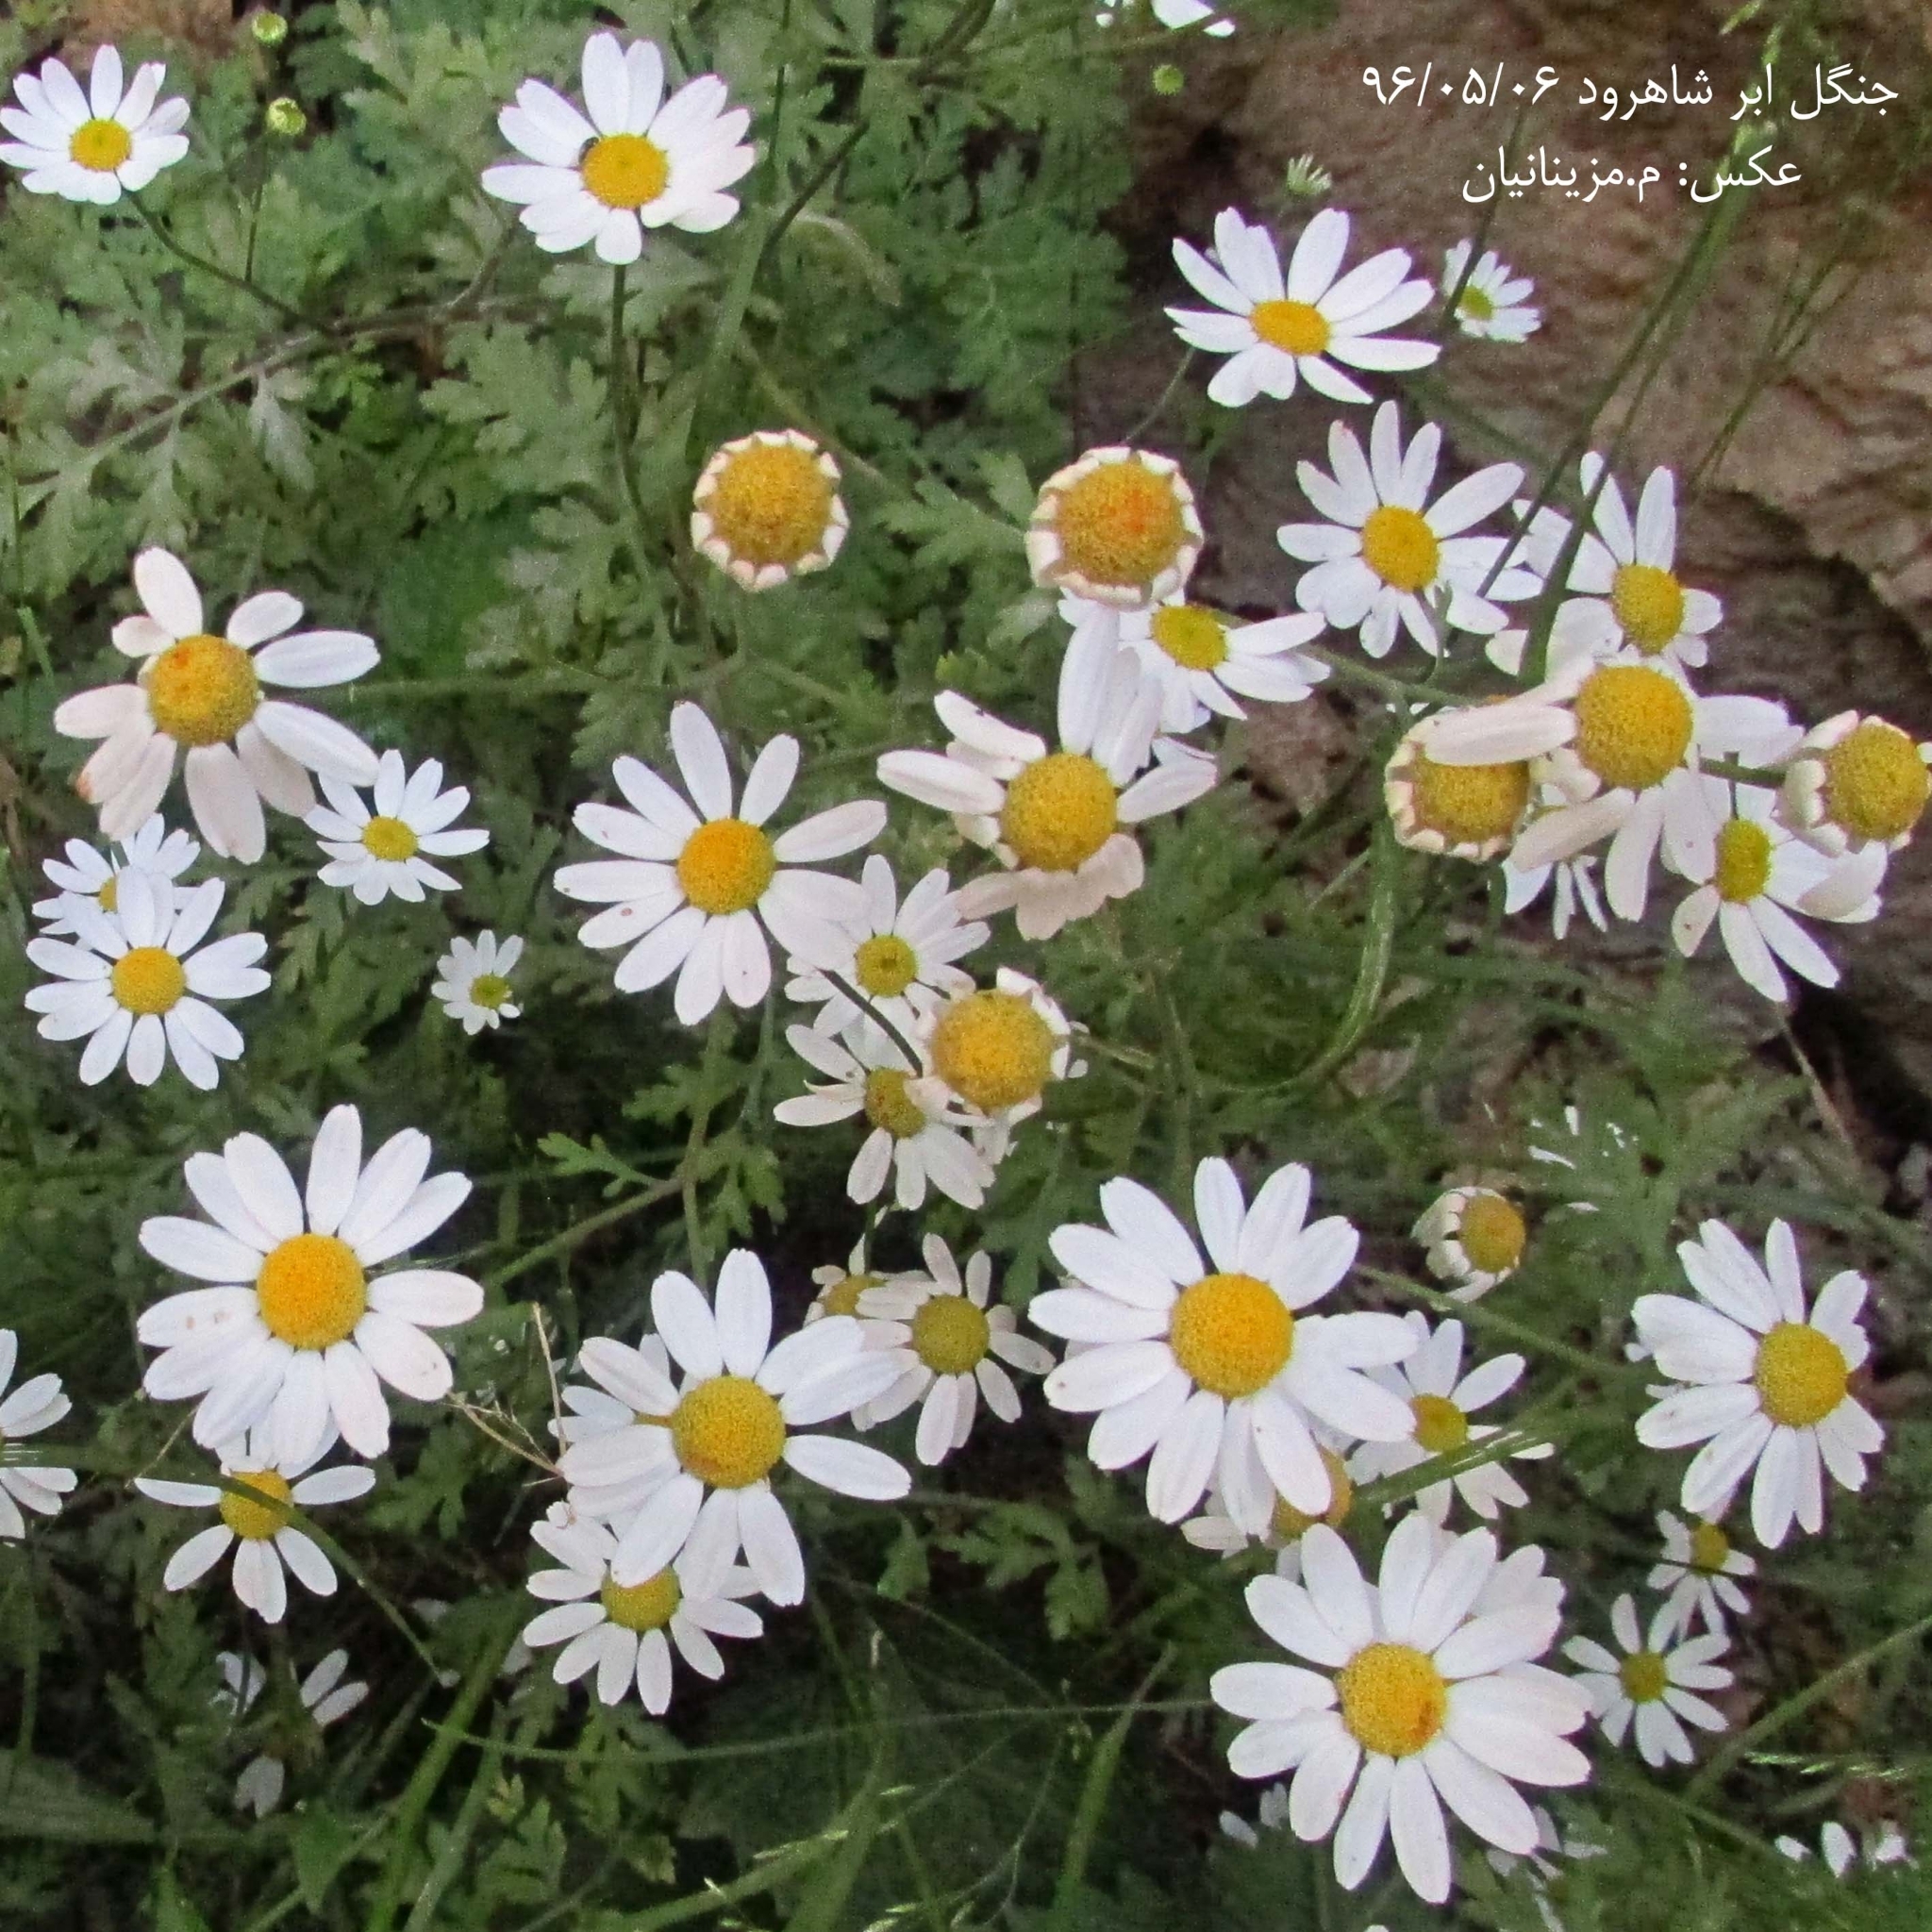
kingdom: Plantae
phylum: Tracheophyta
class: Magnoliopsida
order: Asterales
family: Asteraceae
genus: Tanacetum
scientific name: Tanacetum parthenium
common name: Feverfew
